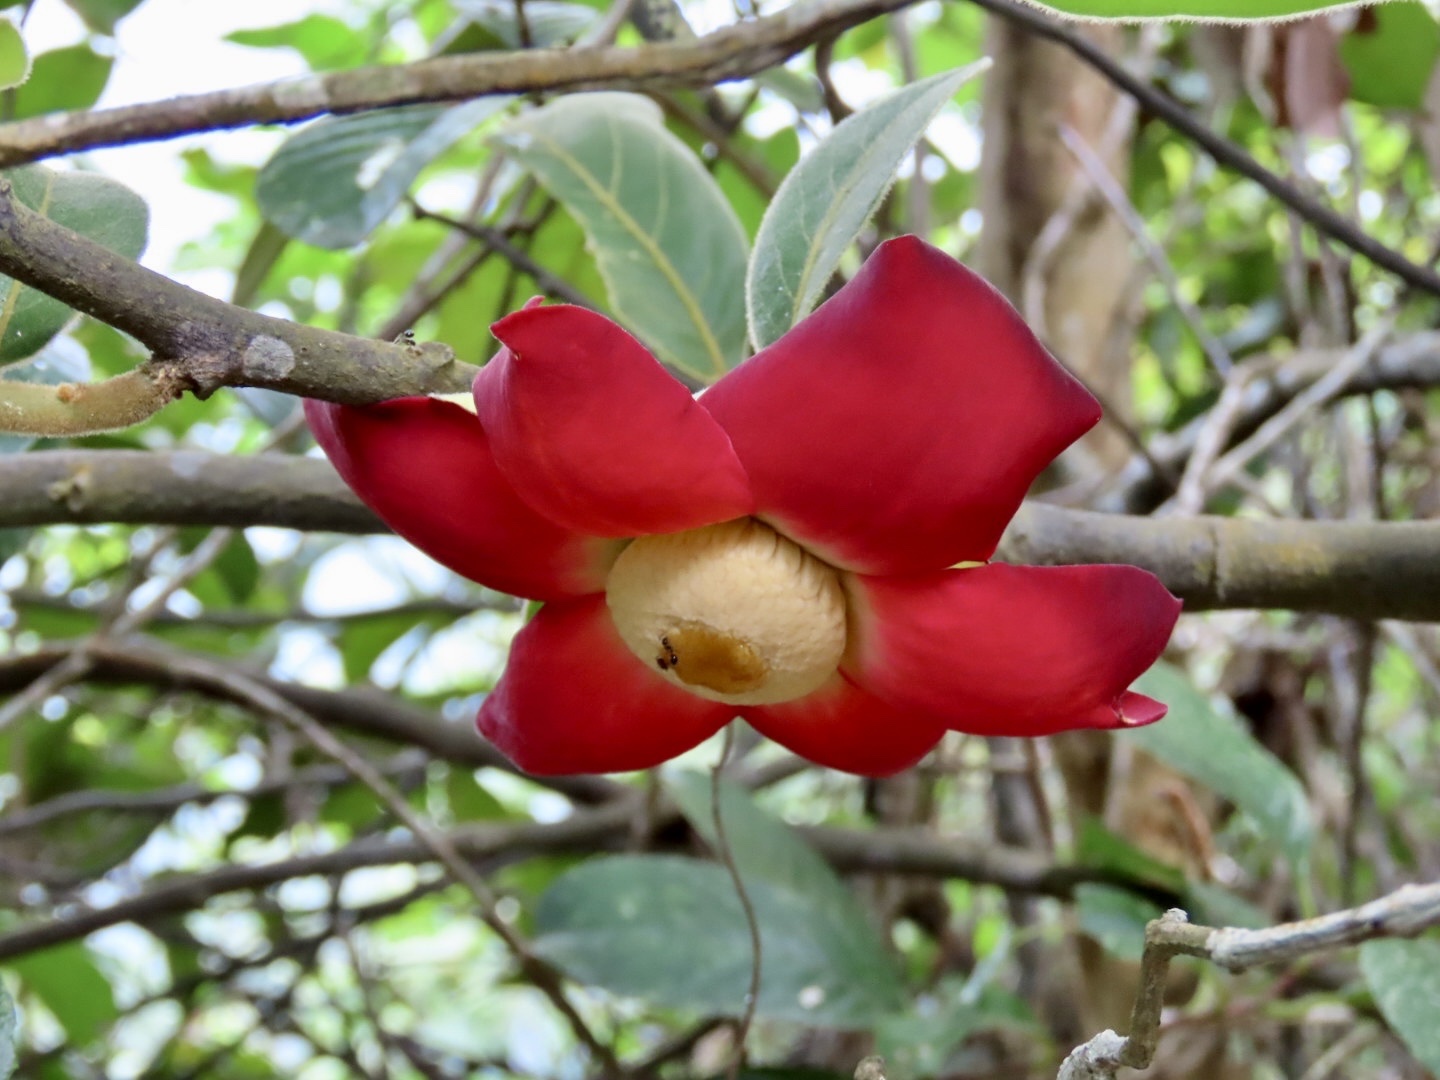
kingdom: Plantae
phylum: Tracheophyta
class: Magnoliopsida
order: Magnoliales
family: Annonaceae
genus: Uvaria
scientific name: Uvaria grandiflora
